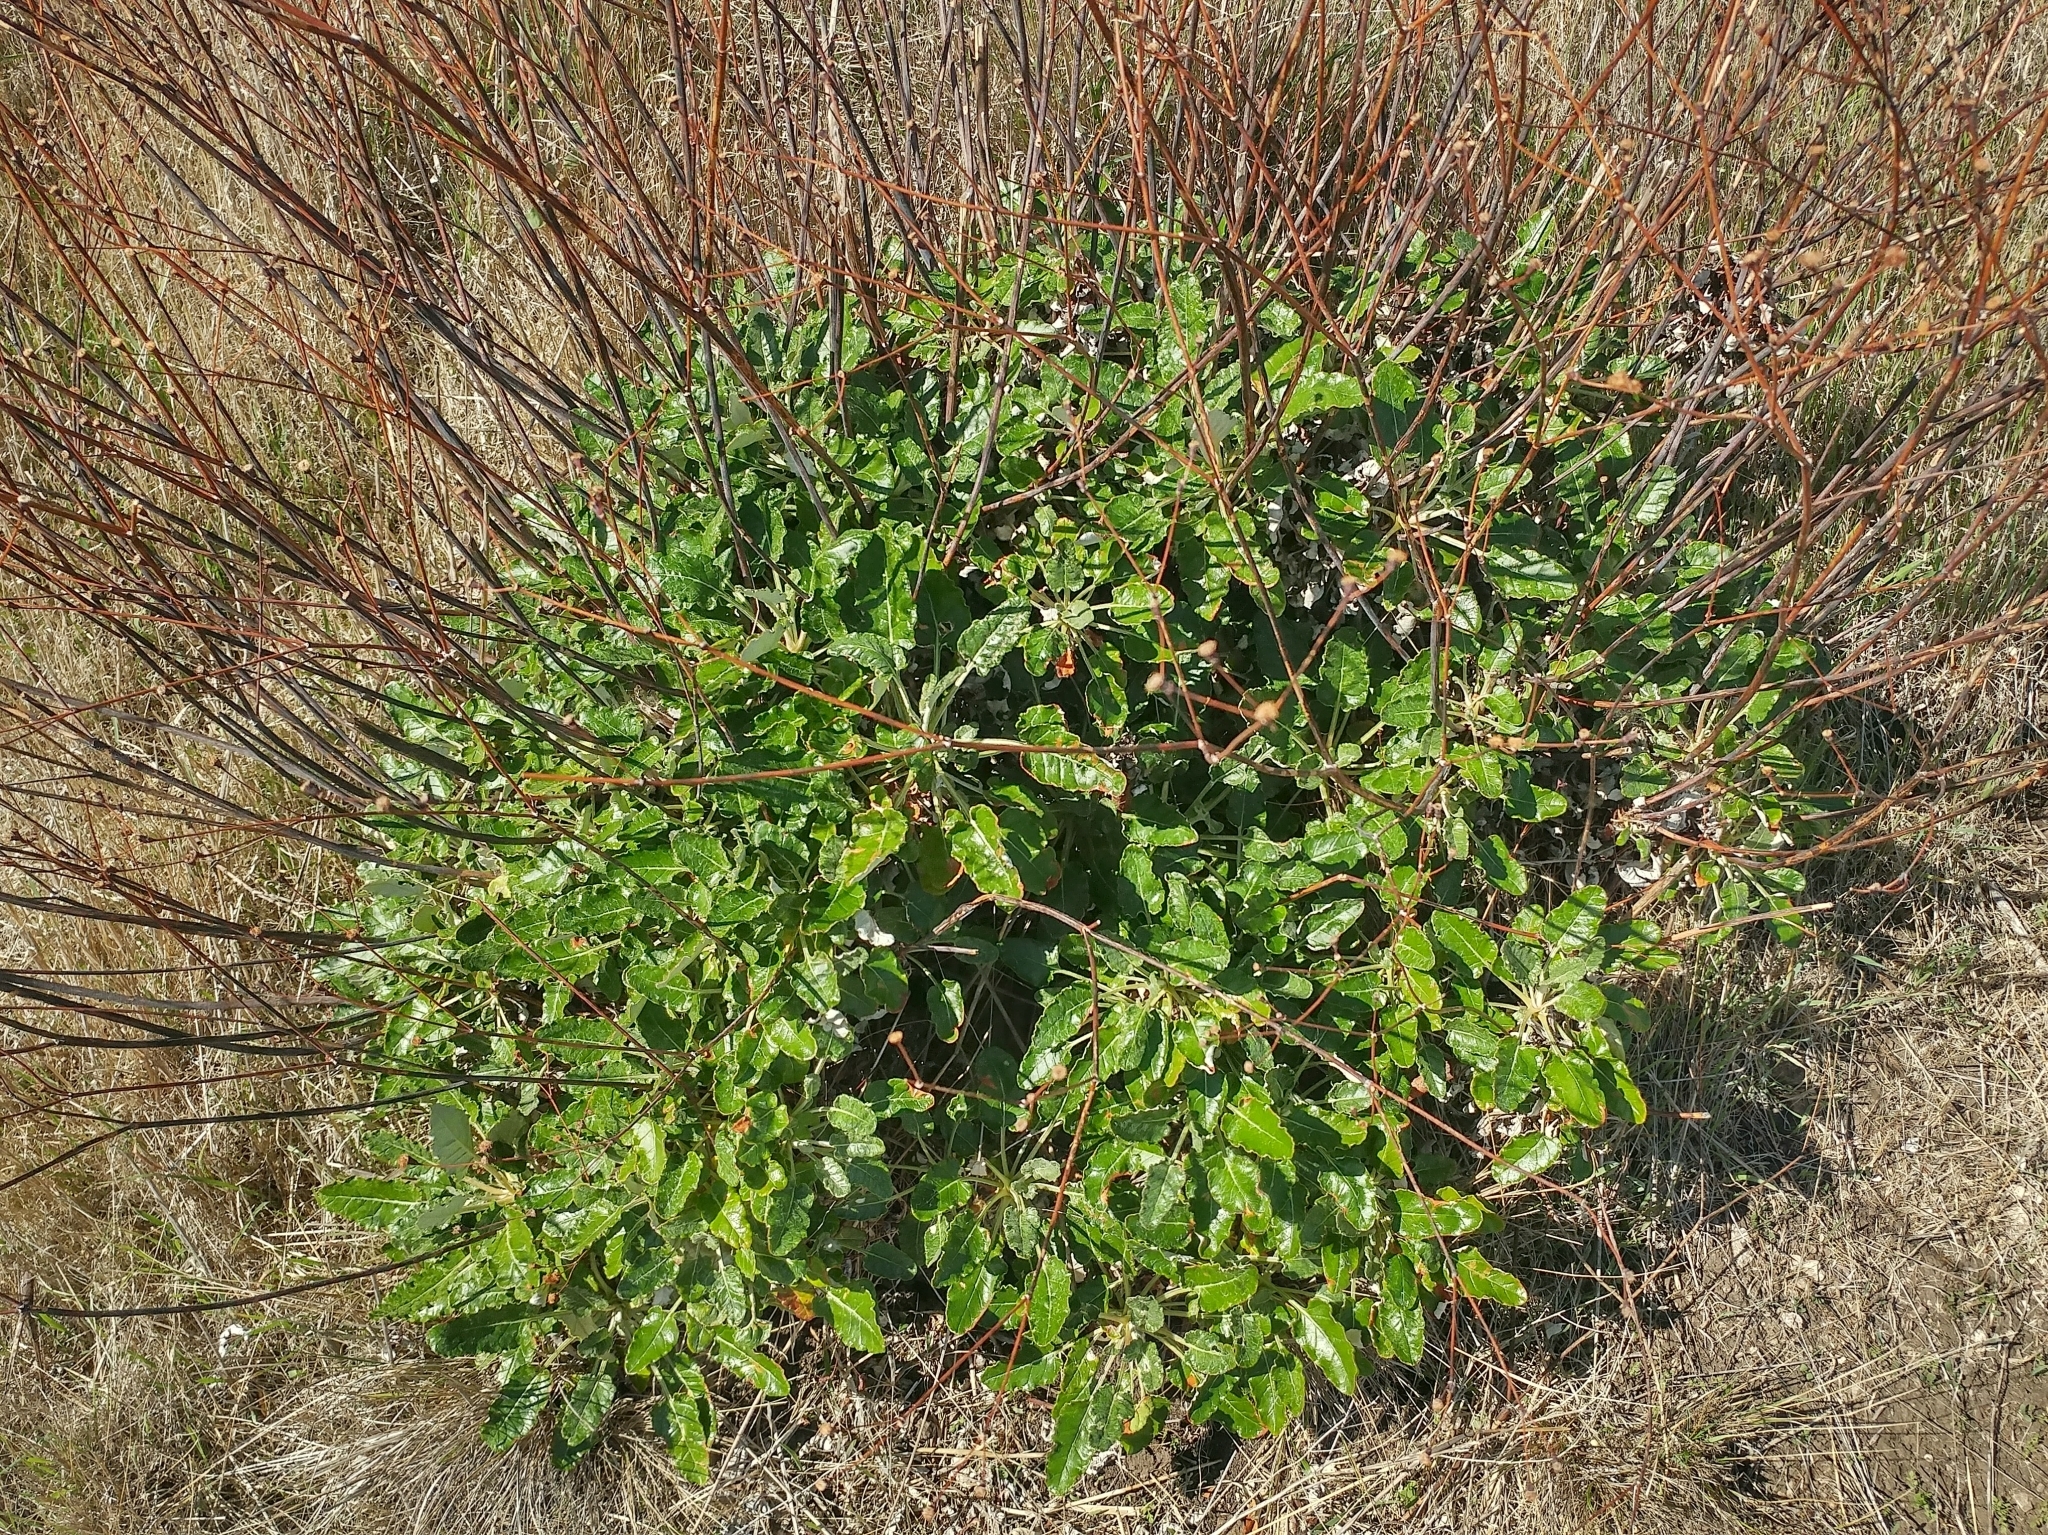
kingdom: Plantae
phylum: Tracheophyta
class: Magnoliopsida
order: Caryophyllales
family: Polygonaceae
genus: Eriogonum
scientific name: Eriogonum grande
